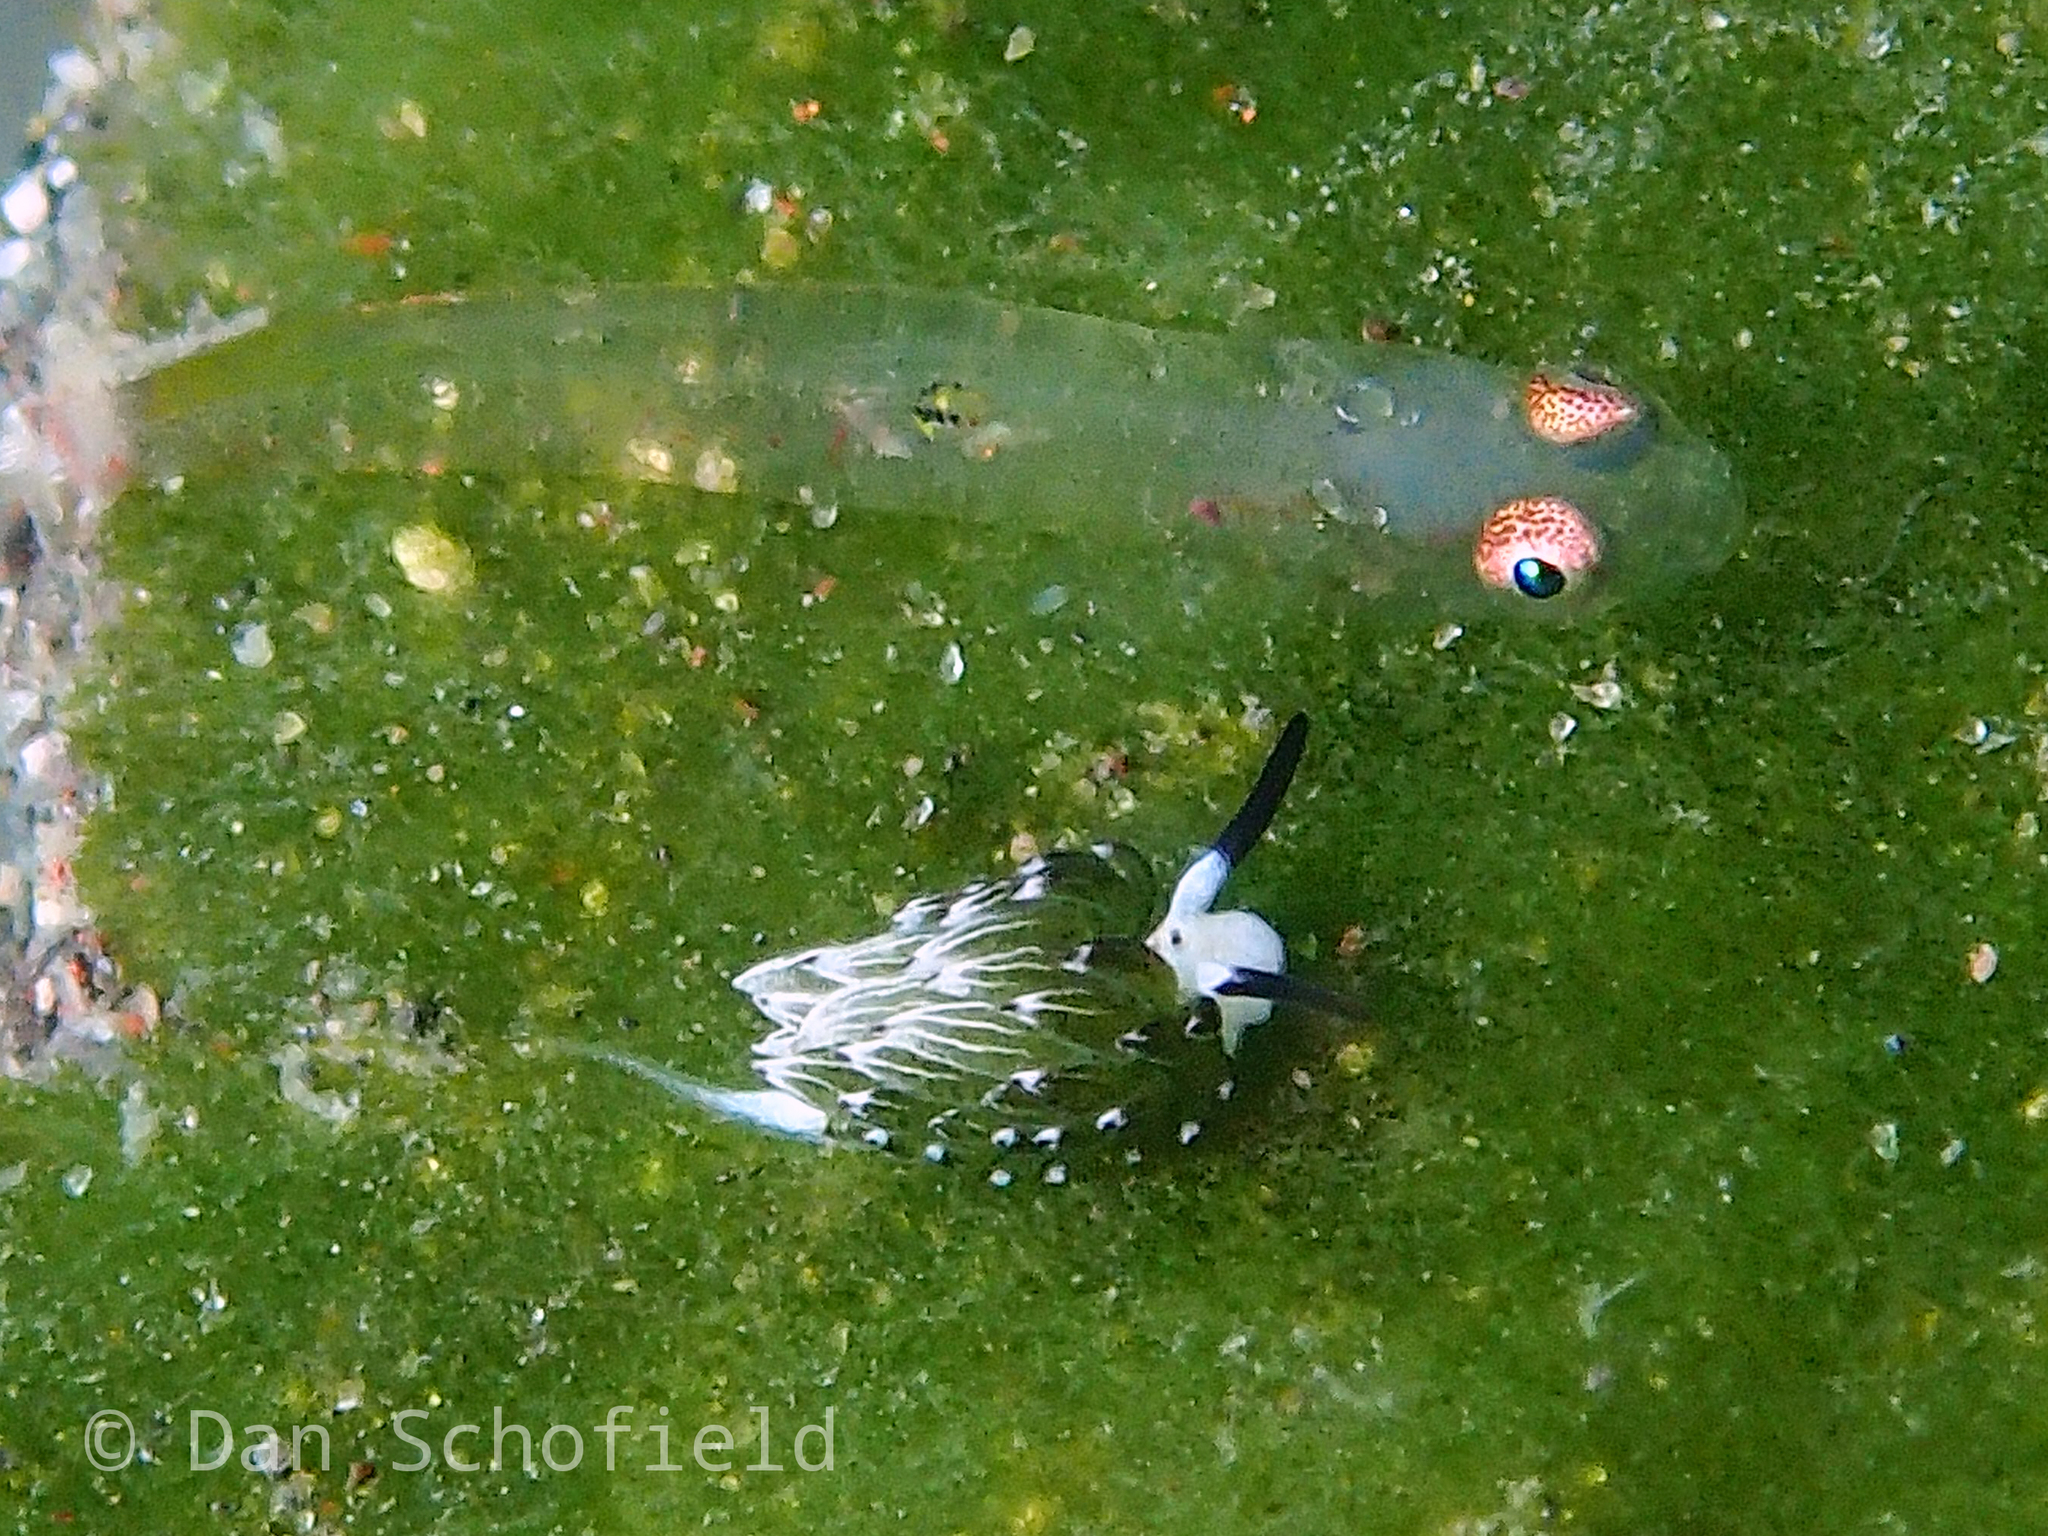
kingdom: Animalia
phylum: Mollusca
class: Gastropoda
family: Costasiellidae
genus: Costasiella
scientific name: Costasiella usagi
